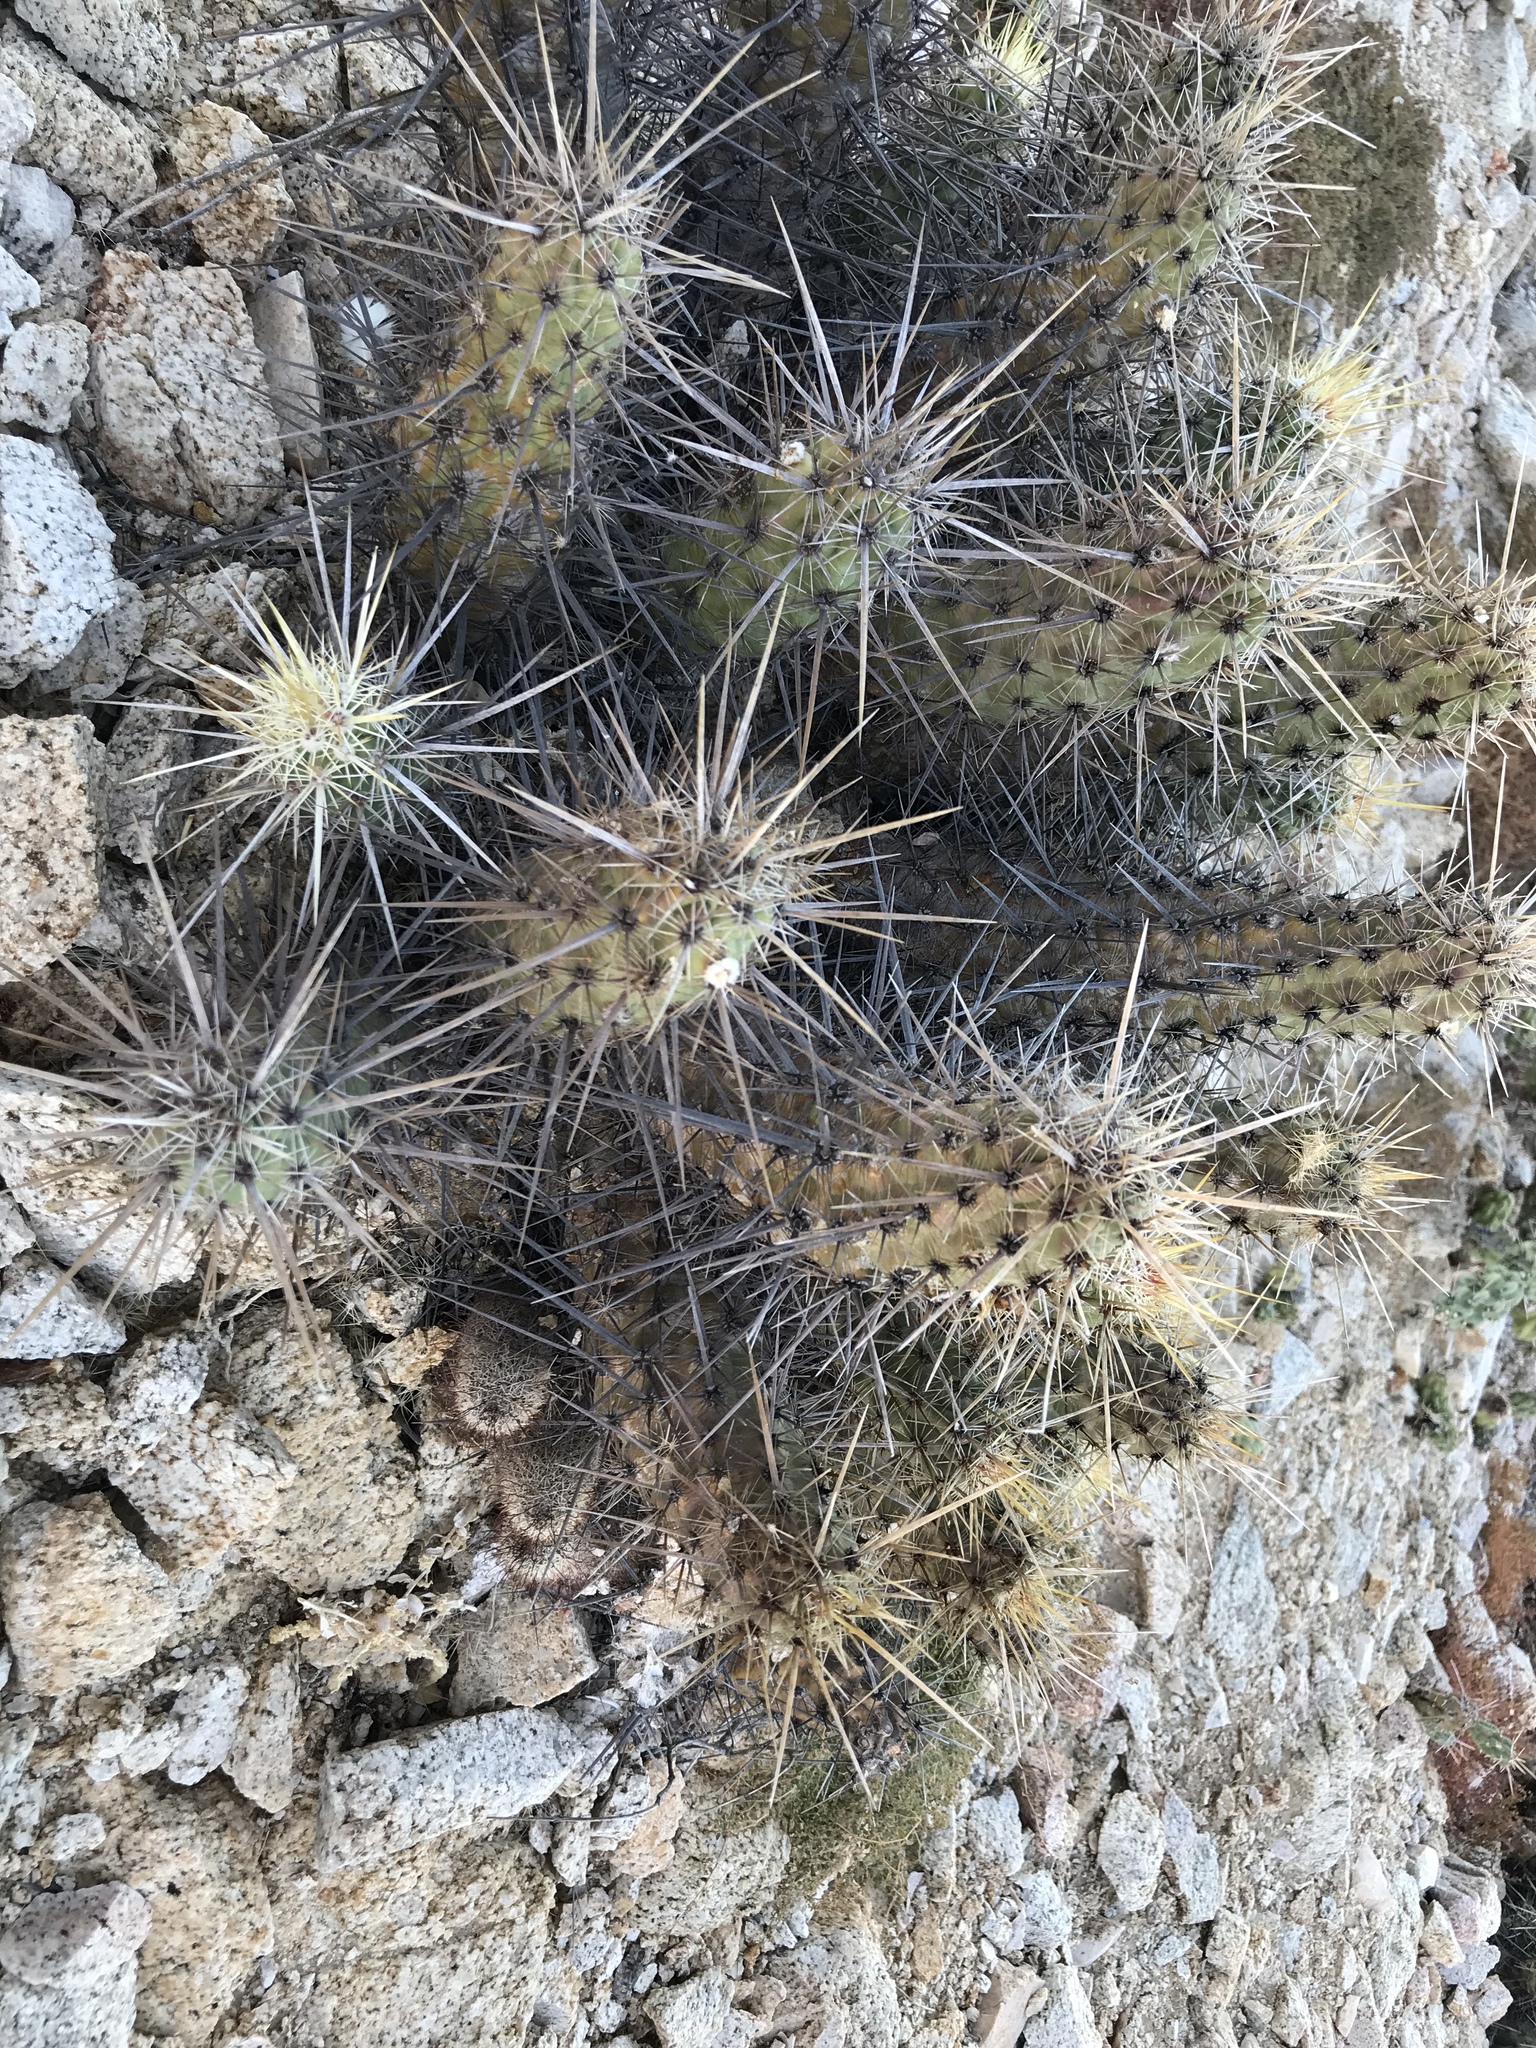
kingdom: Plantae
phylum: Tracheophyta
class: Magnoliopsida
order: Caryophyllales
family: Cactaceae
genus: Echinocereus
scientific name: Echinocereus brandegeei
